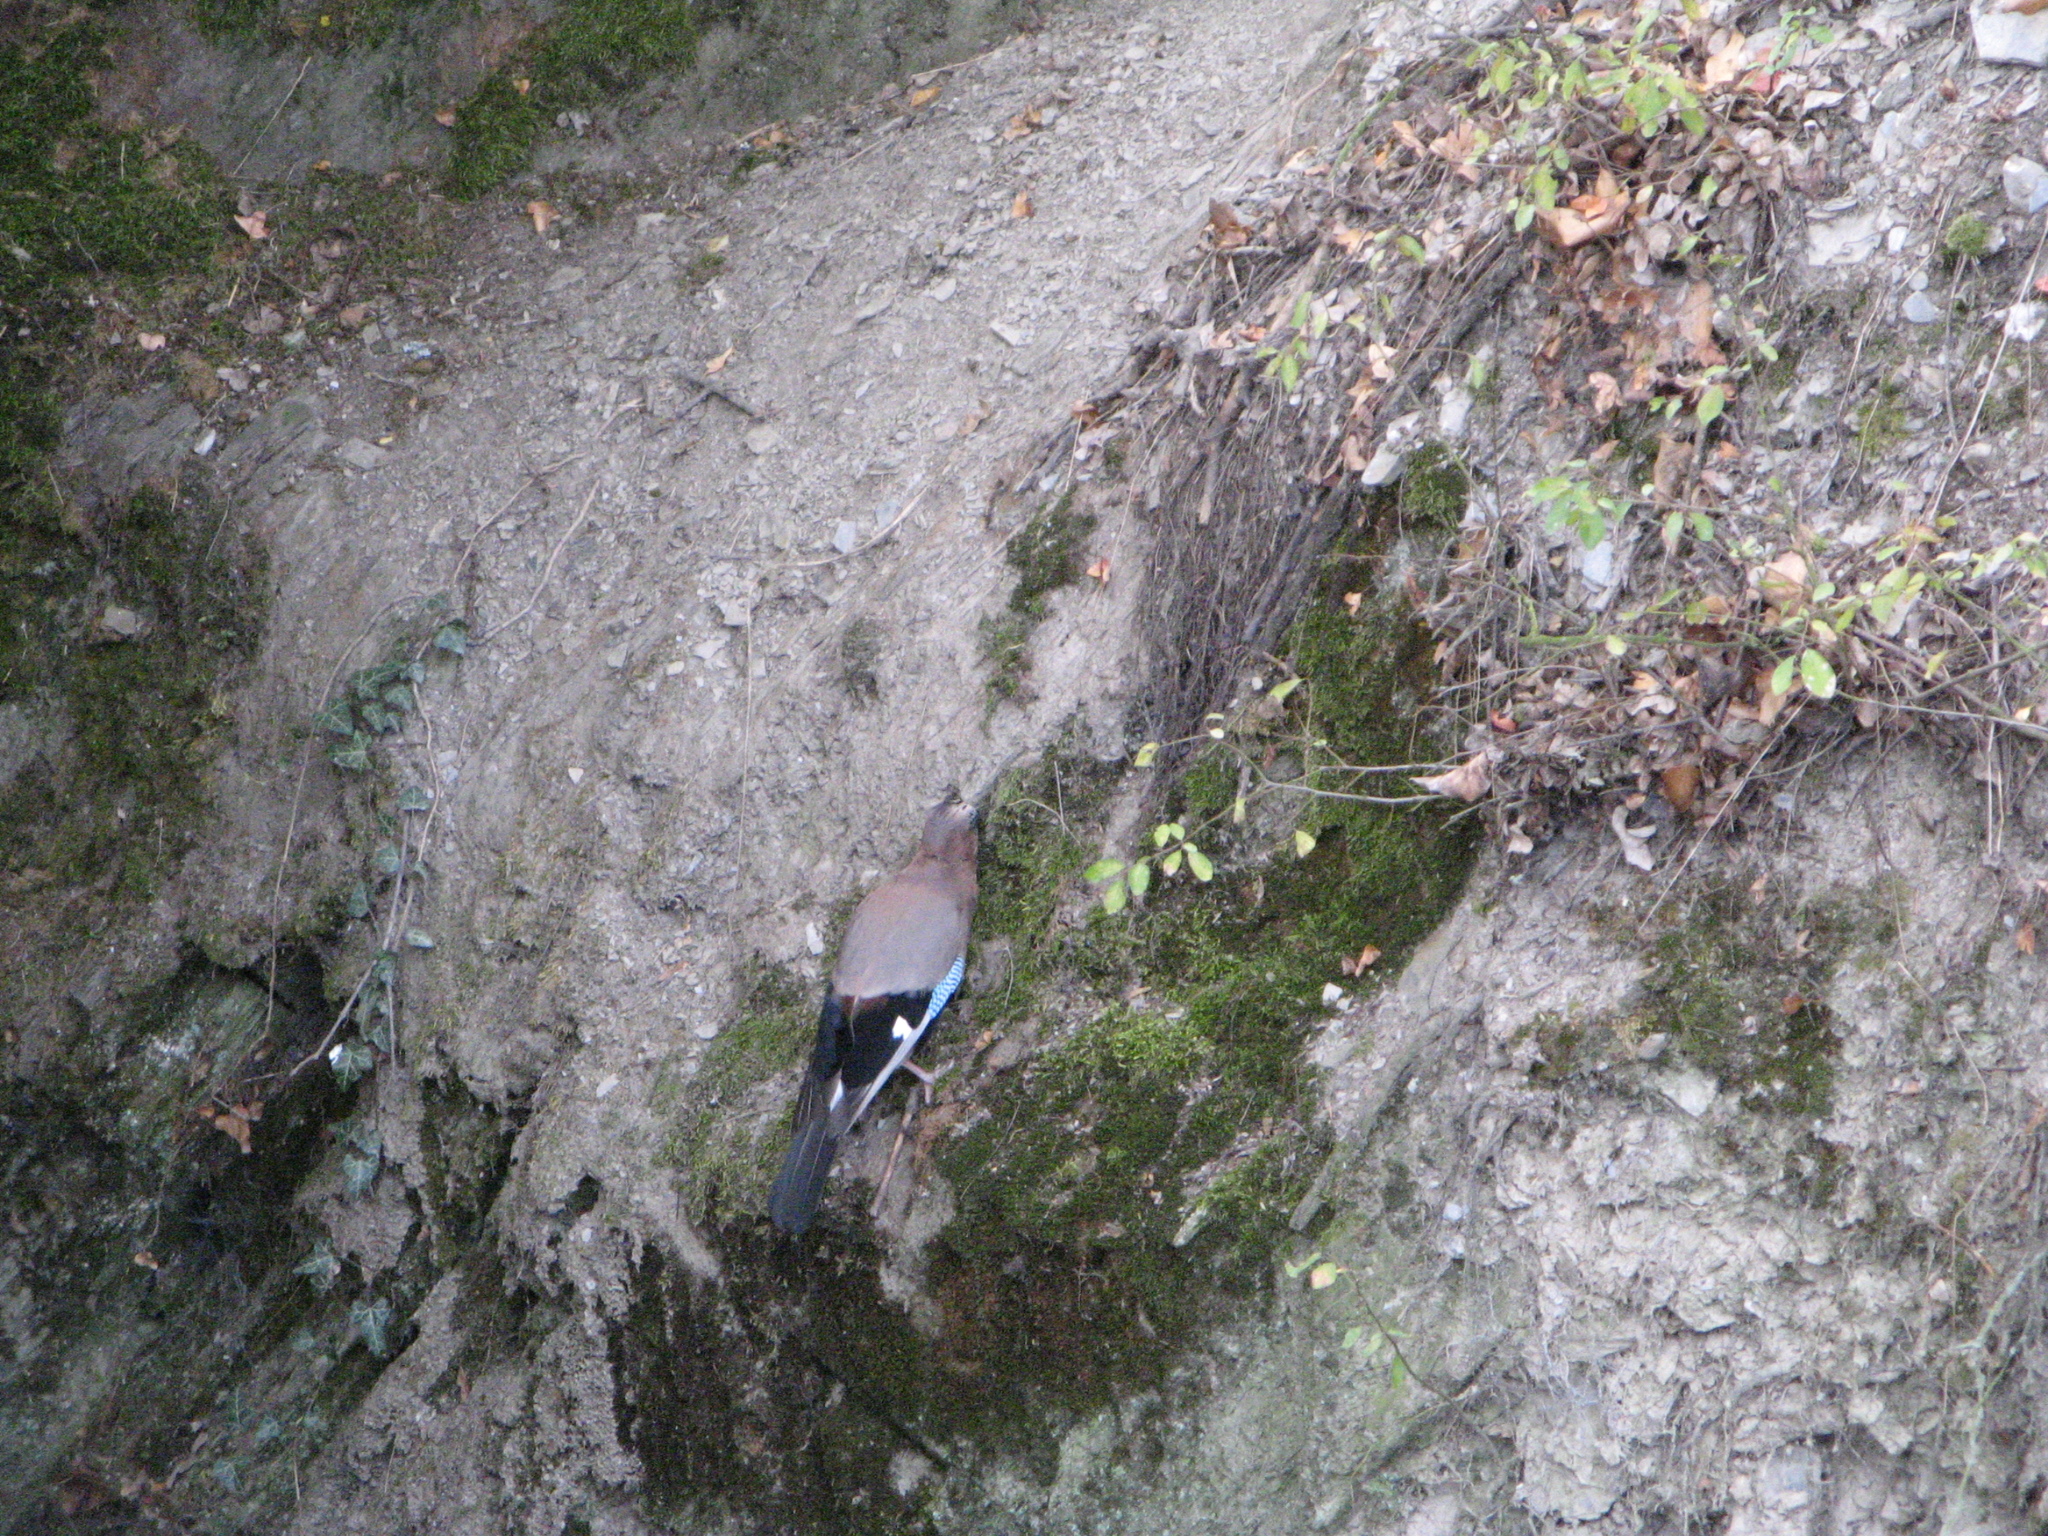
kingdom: Animalia
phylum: Chordata
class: Aves
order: Passeriformes
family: Corvidae
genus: Garrulus
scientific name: Garrulus glandarius
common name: Eurasian jay
